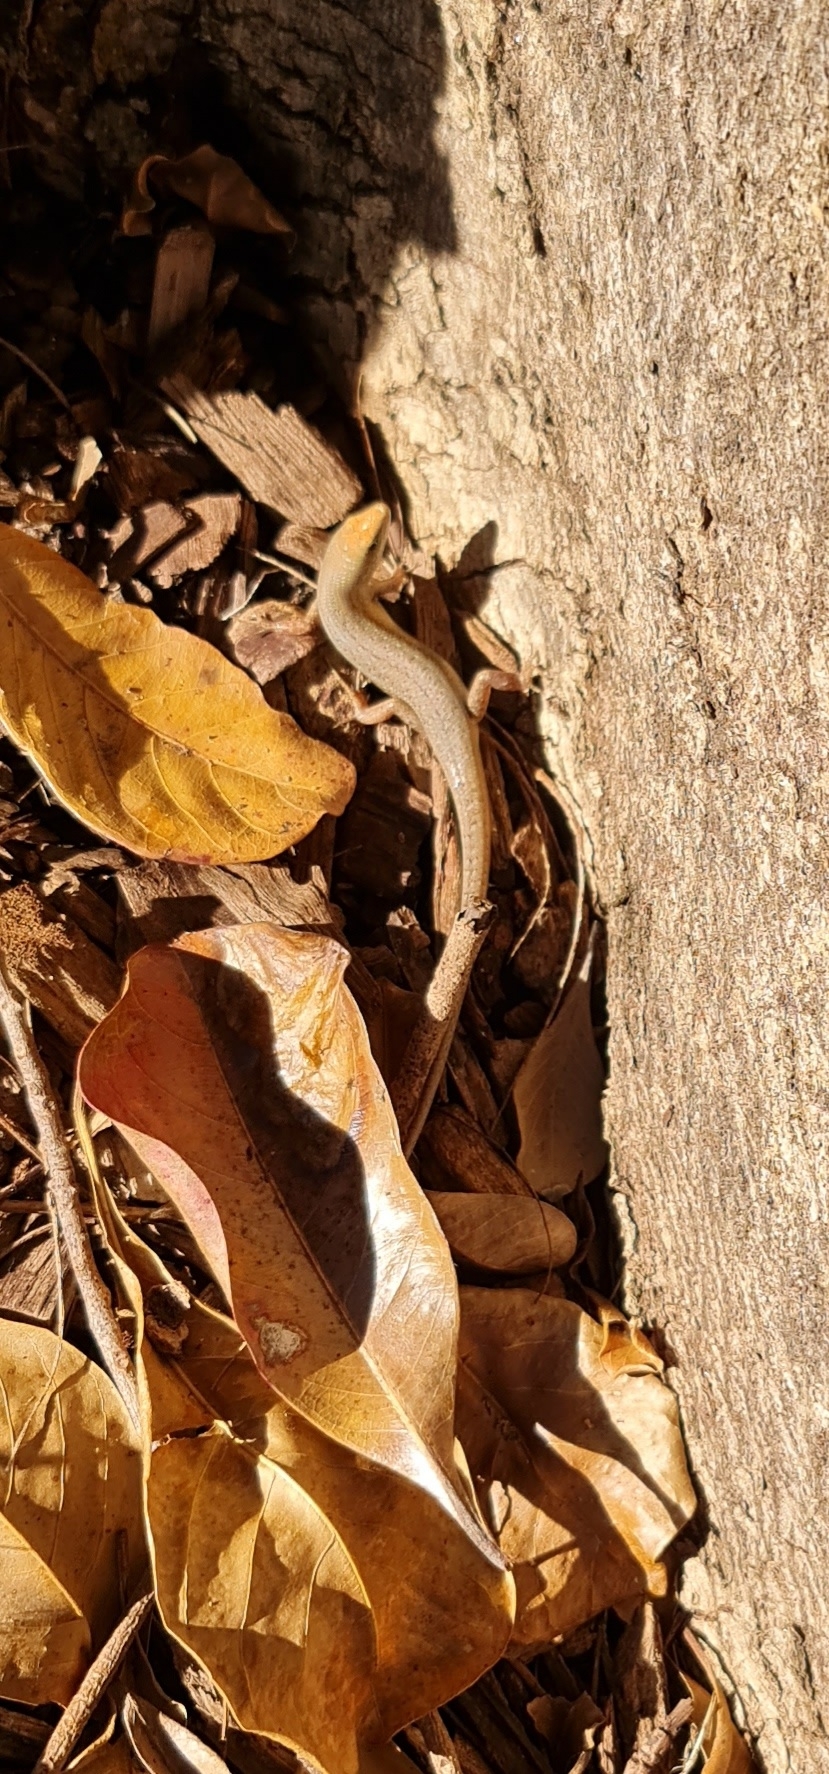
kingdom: Animalia
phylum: Chordata
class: Squamata
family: Scincidae
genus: Carlia
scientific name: Carlia gracilis
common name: Slender rainbow skink
